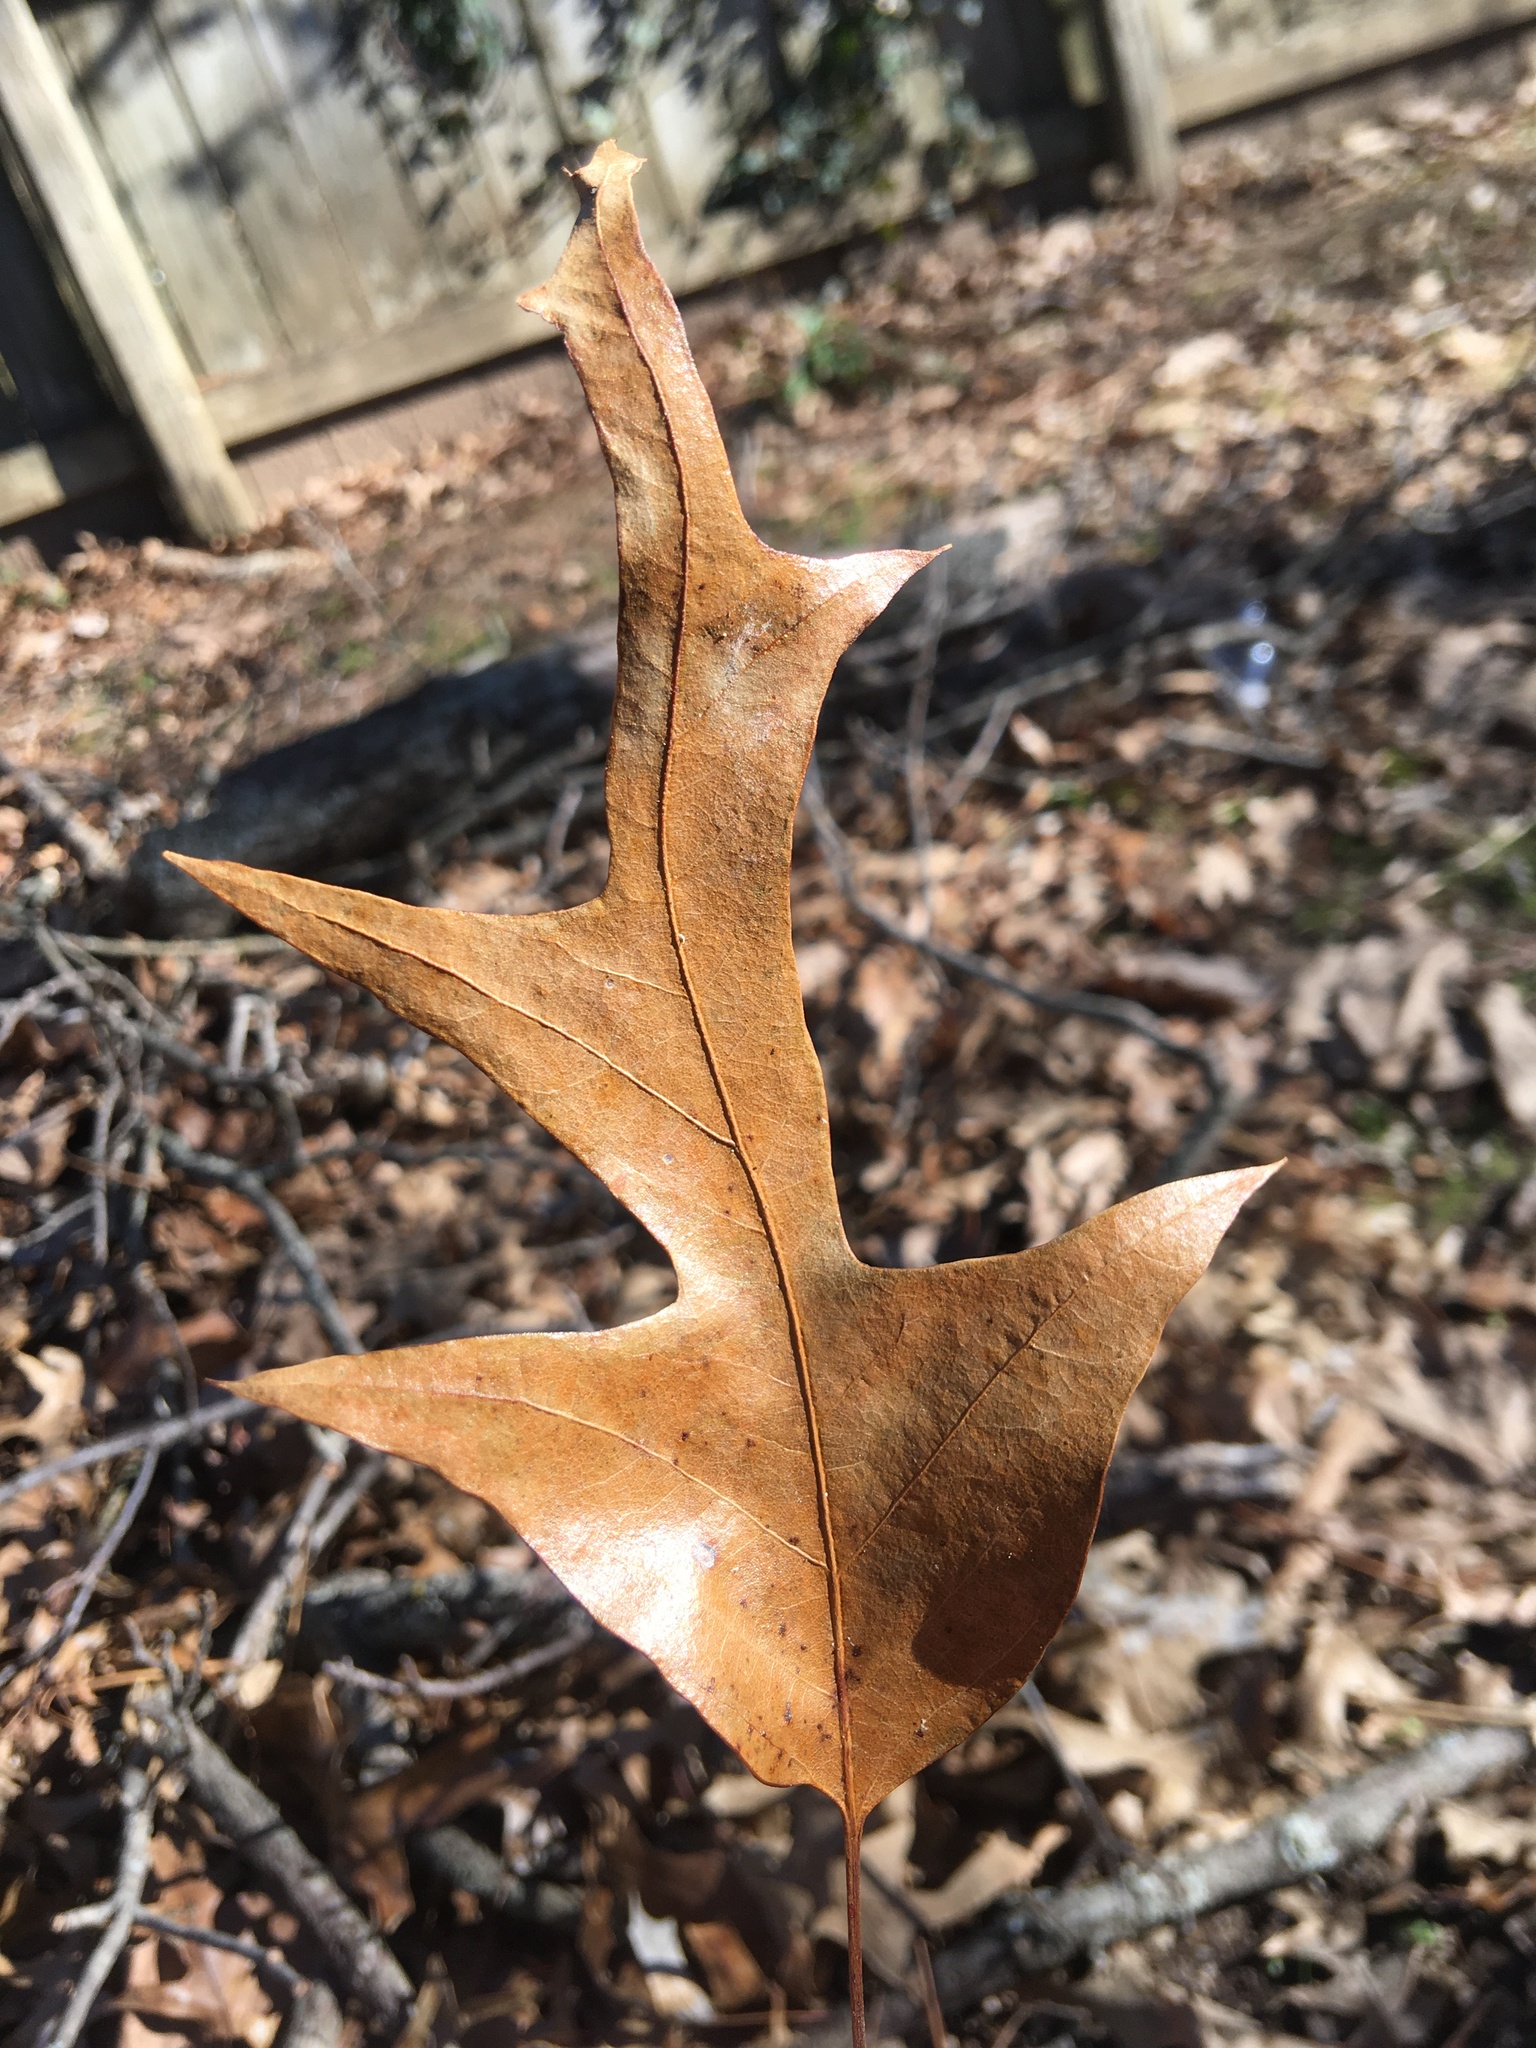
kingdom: Plantae
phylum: Tracheophyta
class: Magnoliopsida
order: Fagales
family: Fagaceae
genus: Quercus
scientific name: Quercus falcata
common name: Southern red oak
